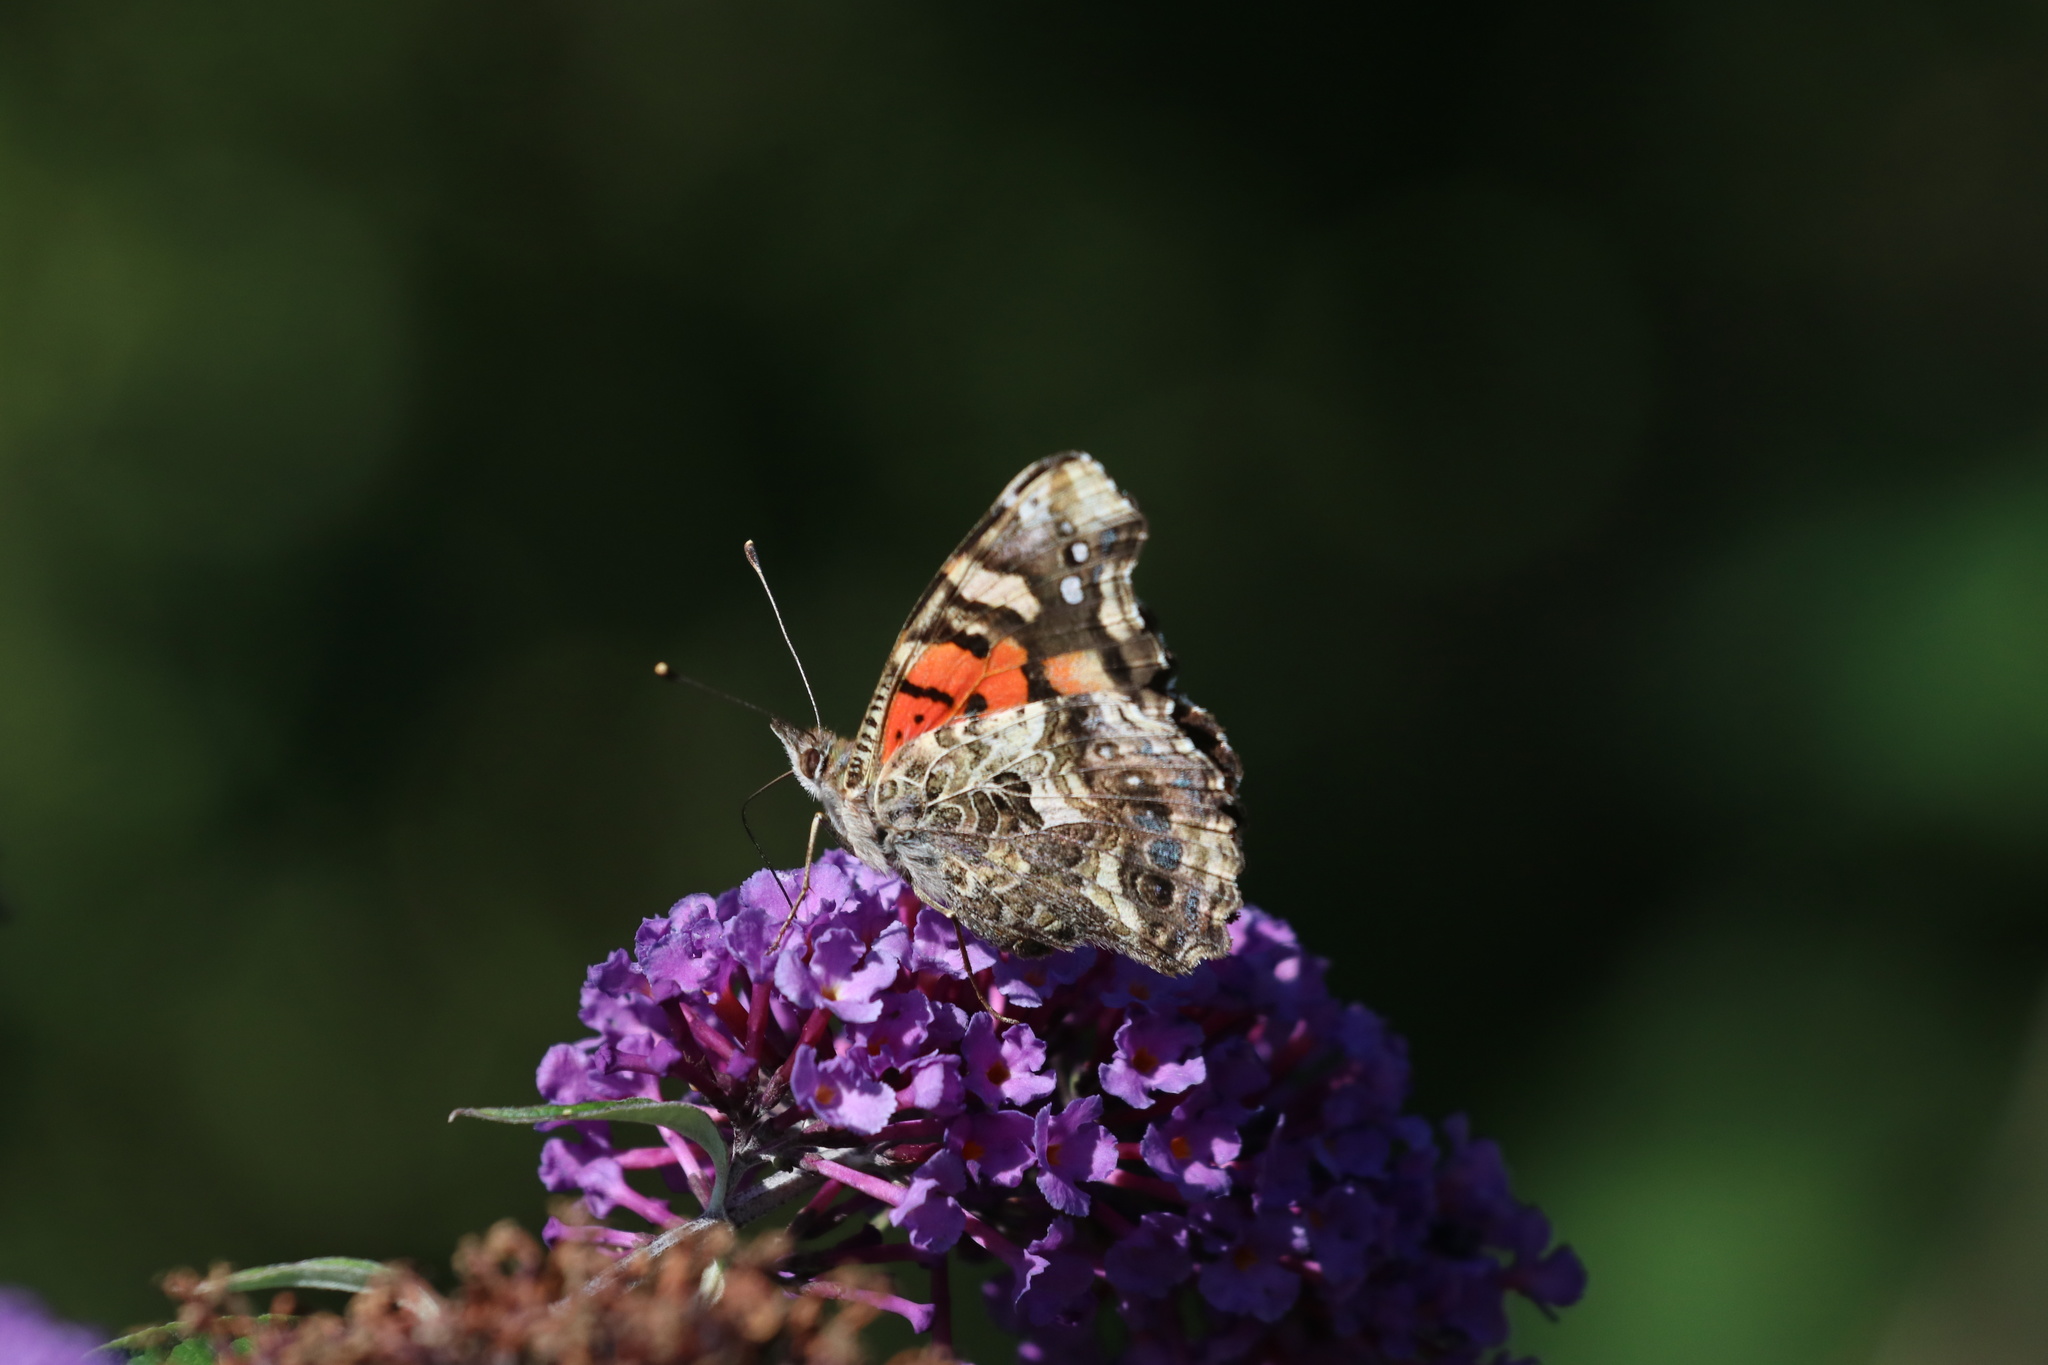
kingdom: Animalia
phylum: Arthropoda
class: Insecta
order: Lepidoptera
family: Nymphalidae
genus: Vanessa
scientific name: Vanessa carye
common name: Subtropical lady
